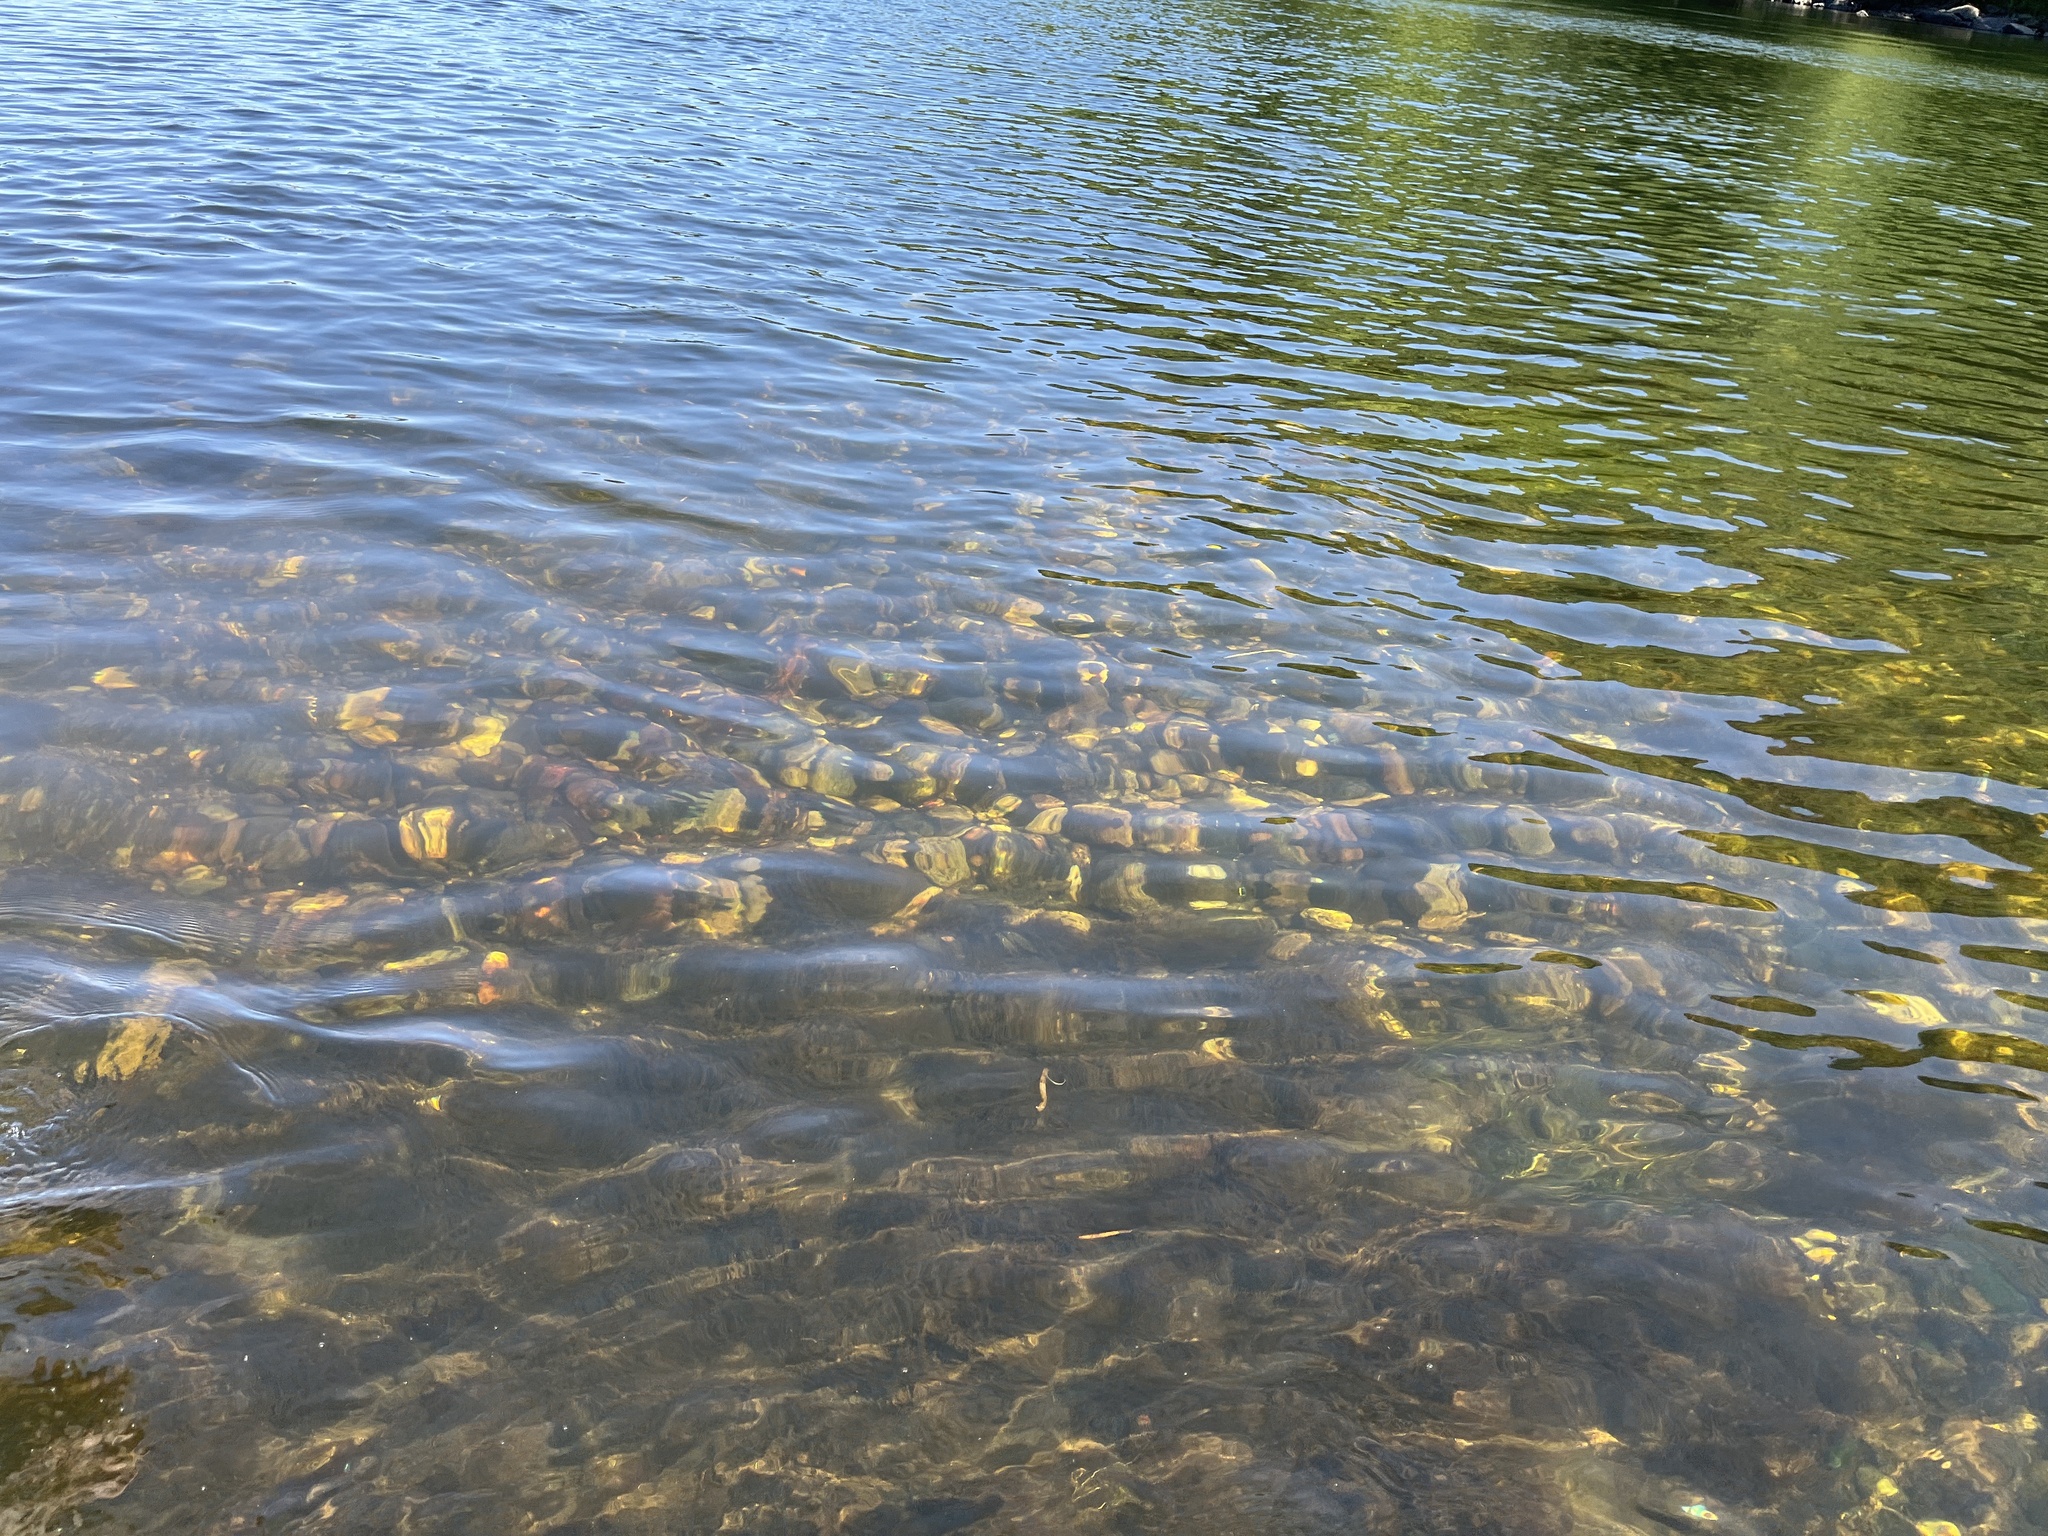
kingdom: Animalia
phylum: Chordata
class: Petromyzonti
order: Petromyzontiformes
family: Petromyzontidae
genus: Petromyzon
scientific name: Petromyzon marinus
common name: Sea lamprey
